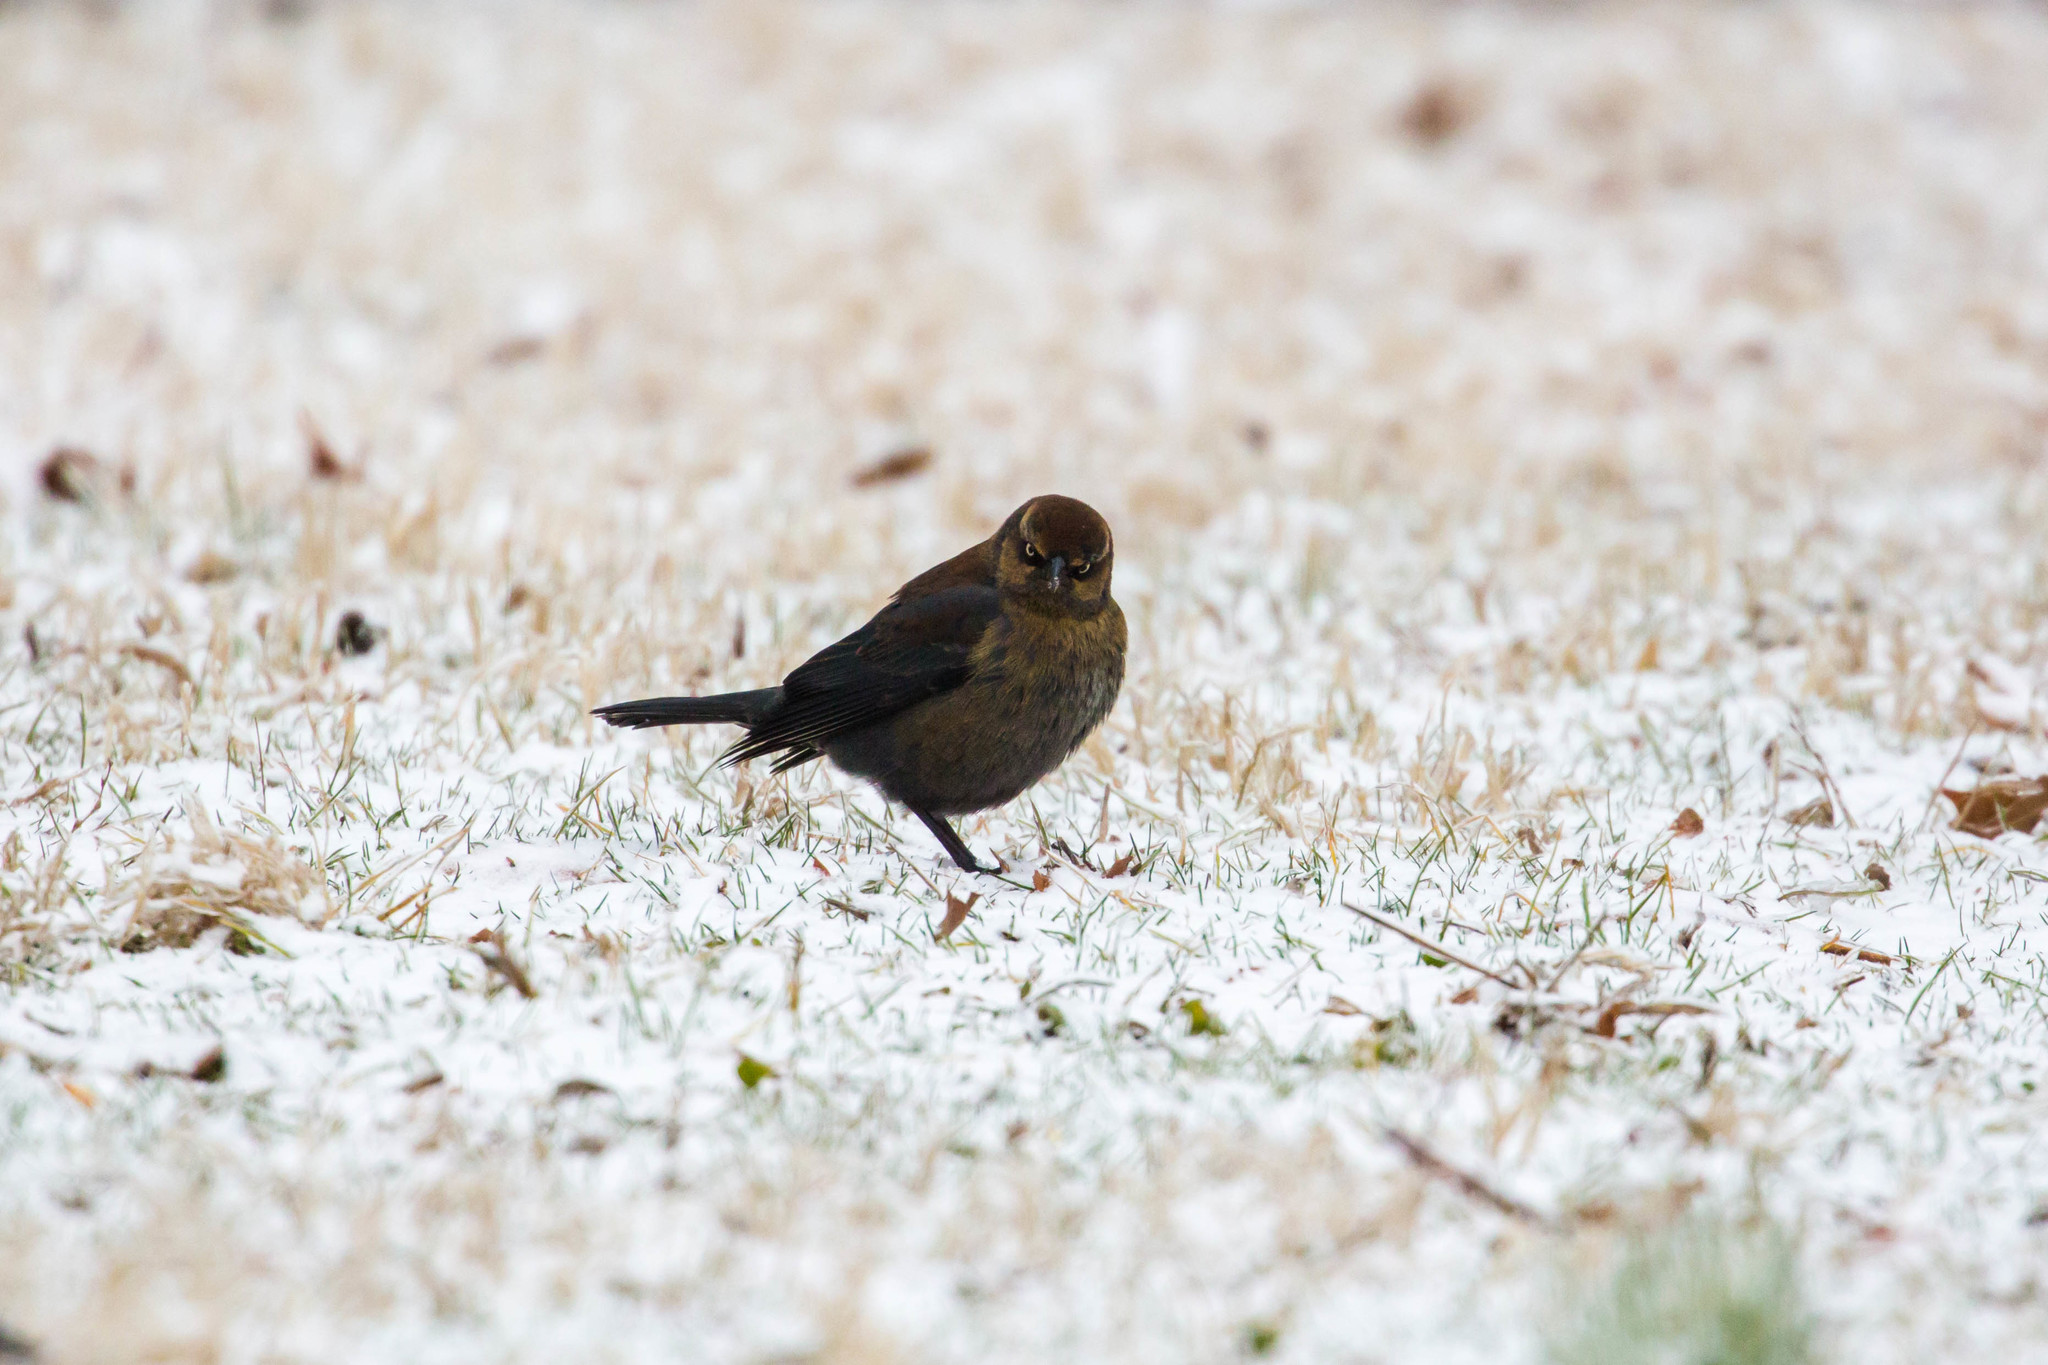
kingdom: Animalia
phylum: Chordata
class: Aves
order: Passeriformes
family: Icteridae
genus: Euphagus
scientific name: Euphagus carolinus
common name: Rusty blackbird
